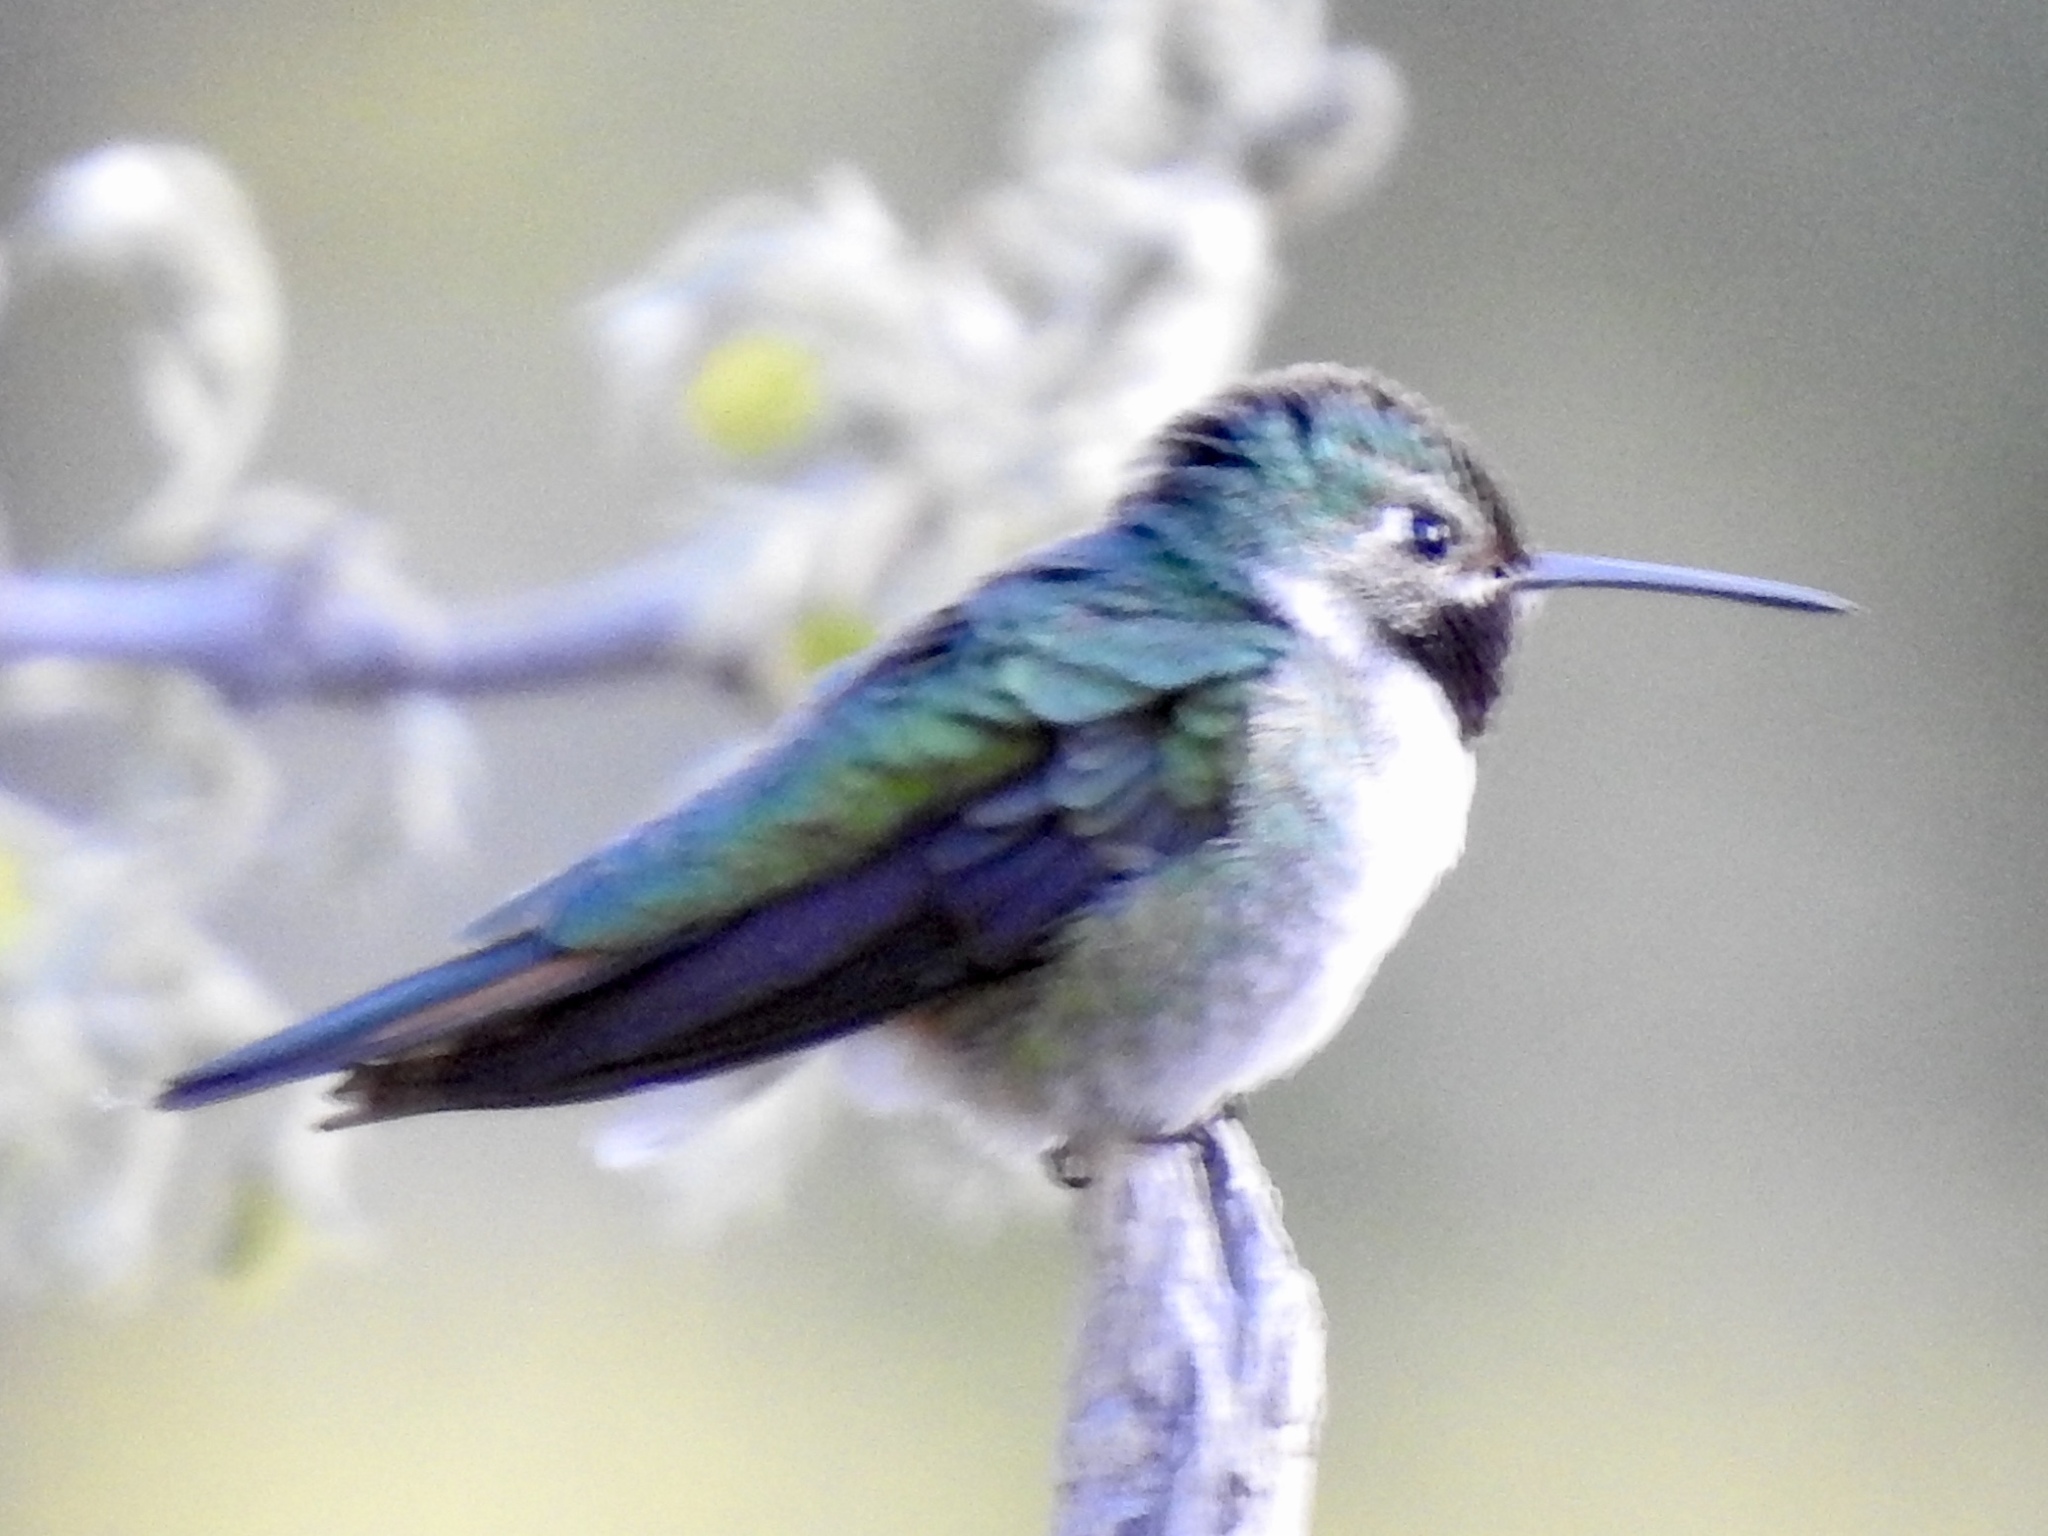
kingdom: Animalia
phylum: Chordata
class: Aves
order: Apodiformes
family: Trochilidae
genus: Selasphorus
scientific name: Selasphorus platycercus
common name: Broad-tailed hummingbird
